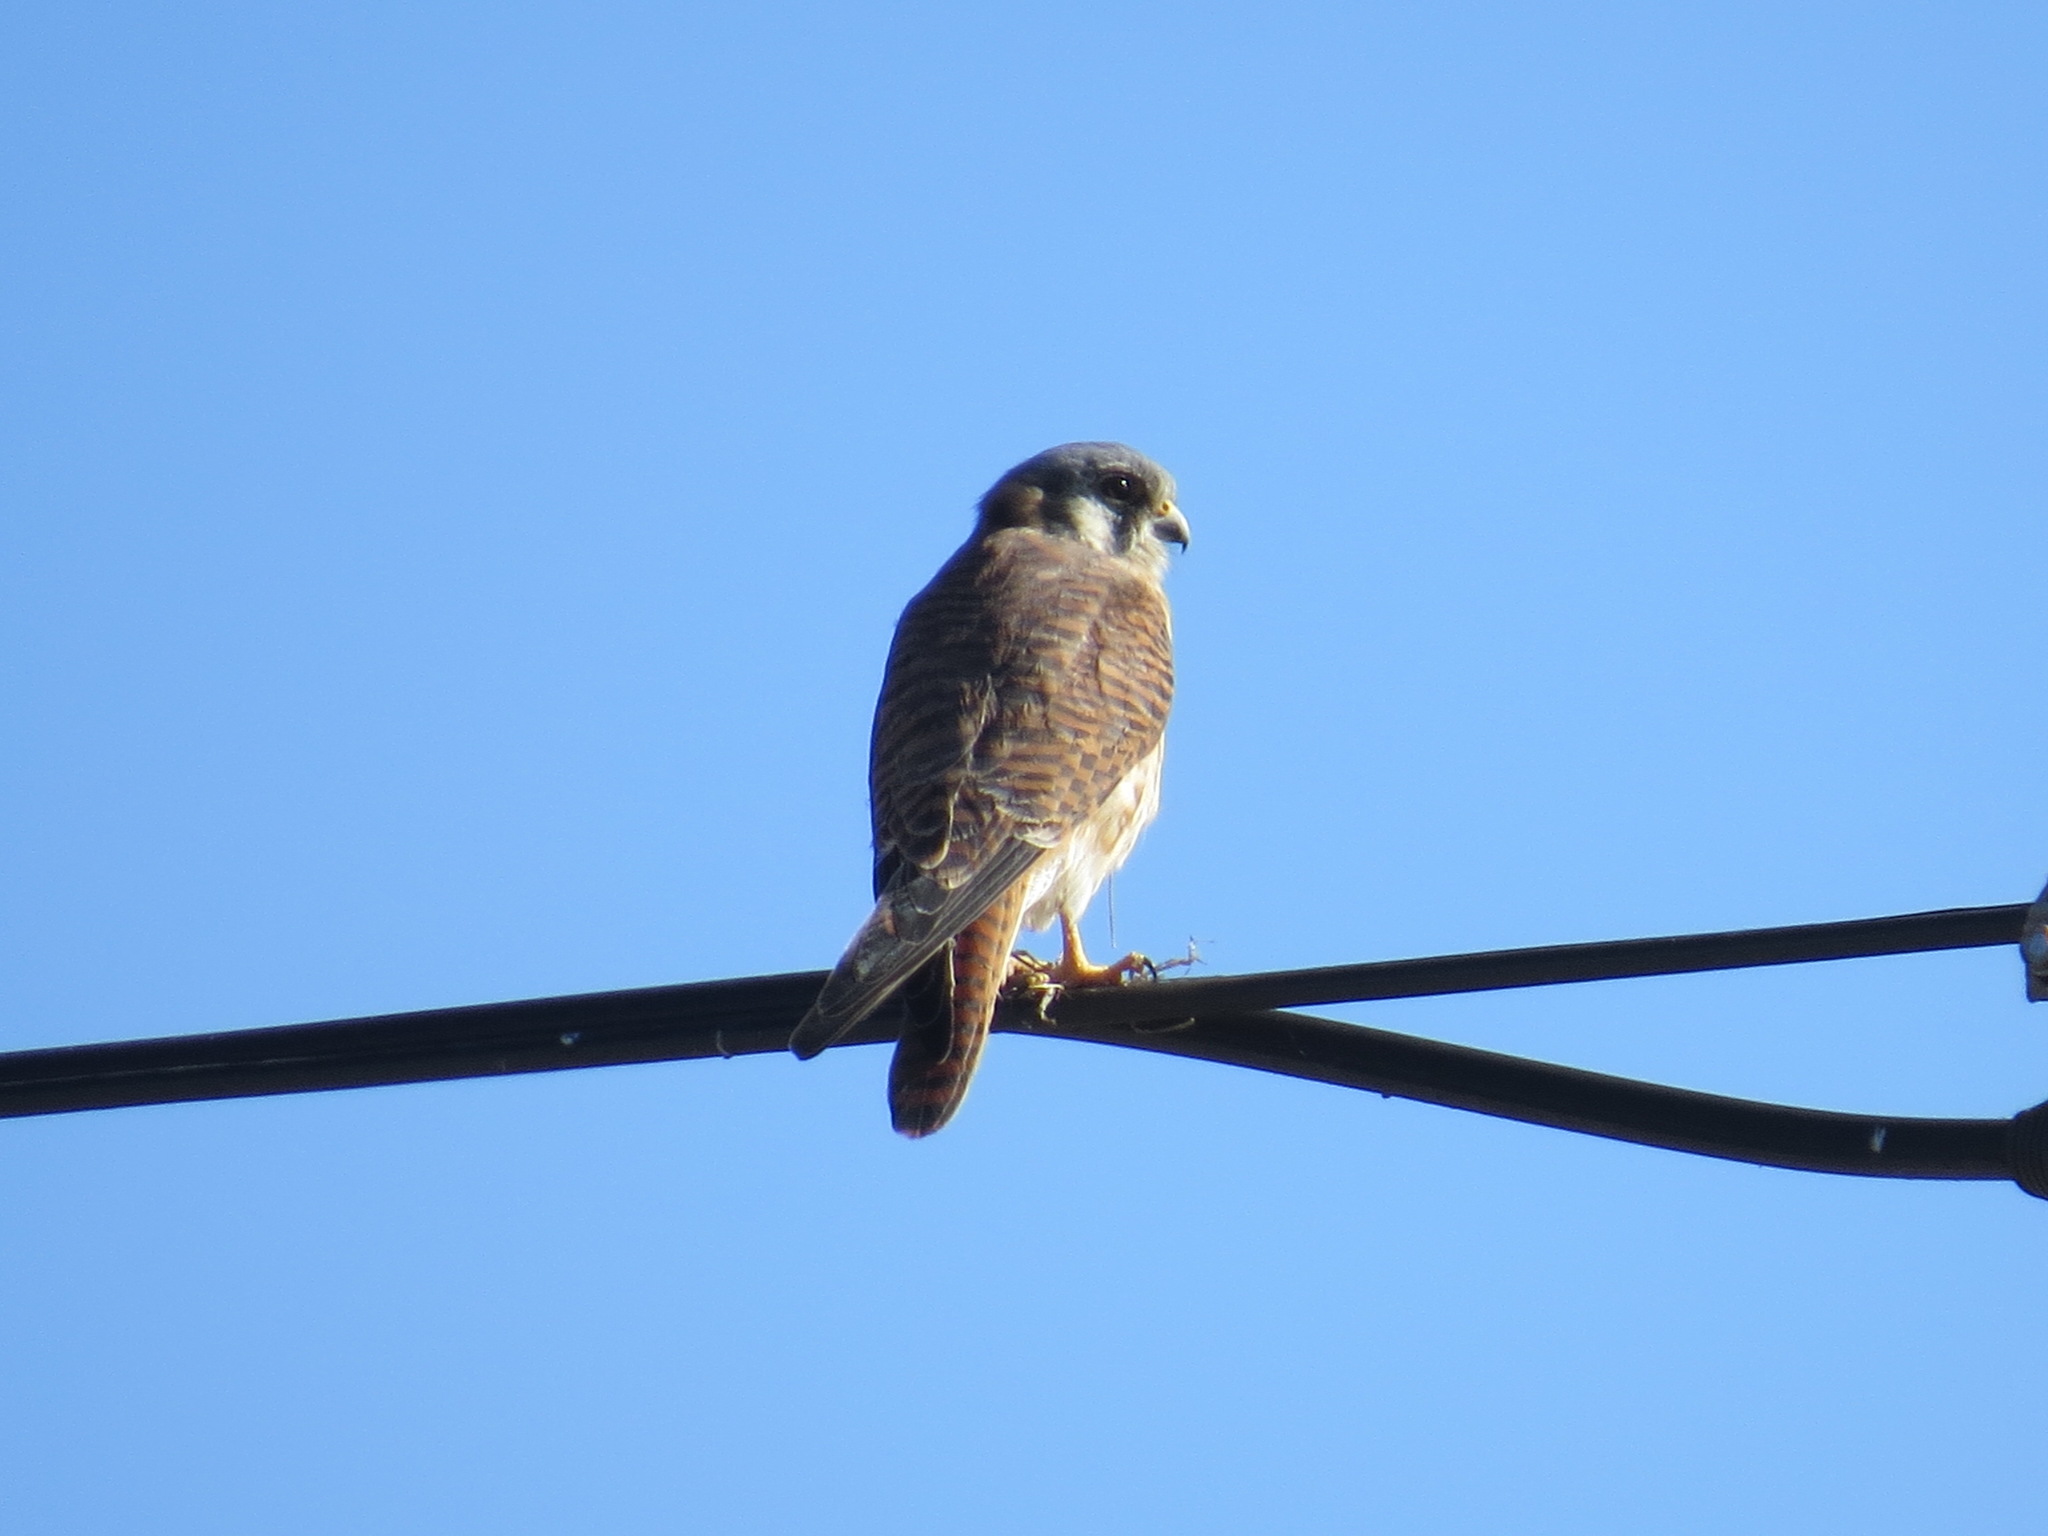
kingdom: Animalia
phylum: Chordata
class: Aves
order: Falconiformes
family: Falconidae
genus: Falco
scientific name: Falco sparverius
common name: American kestrel
